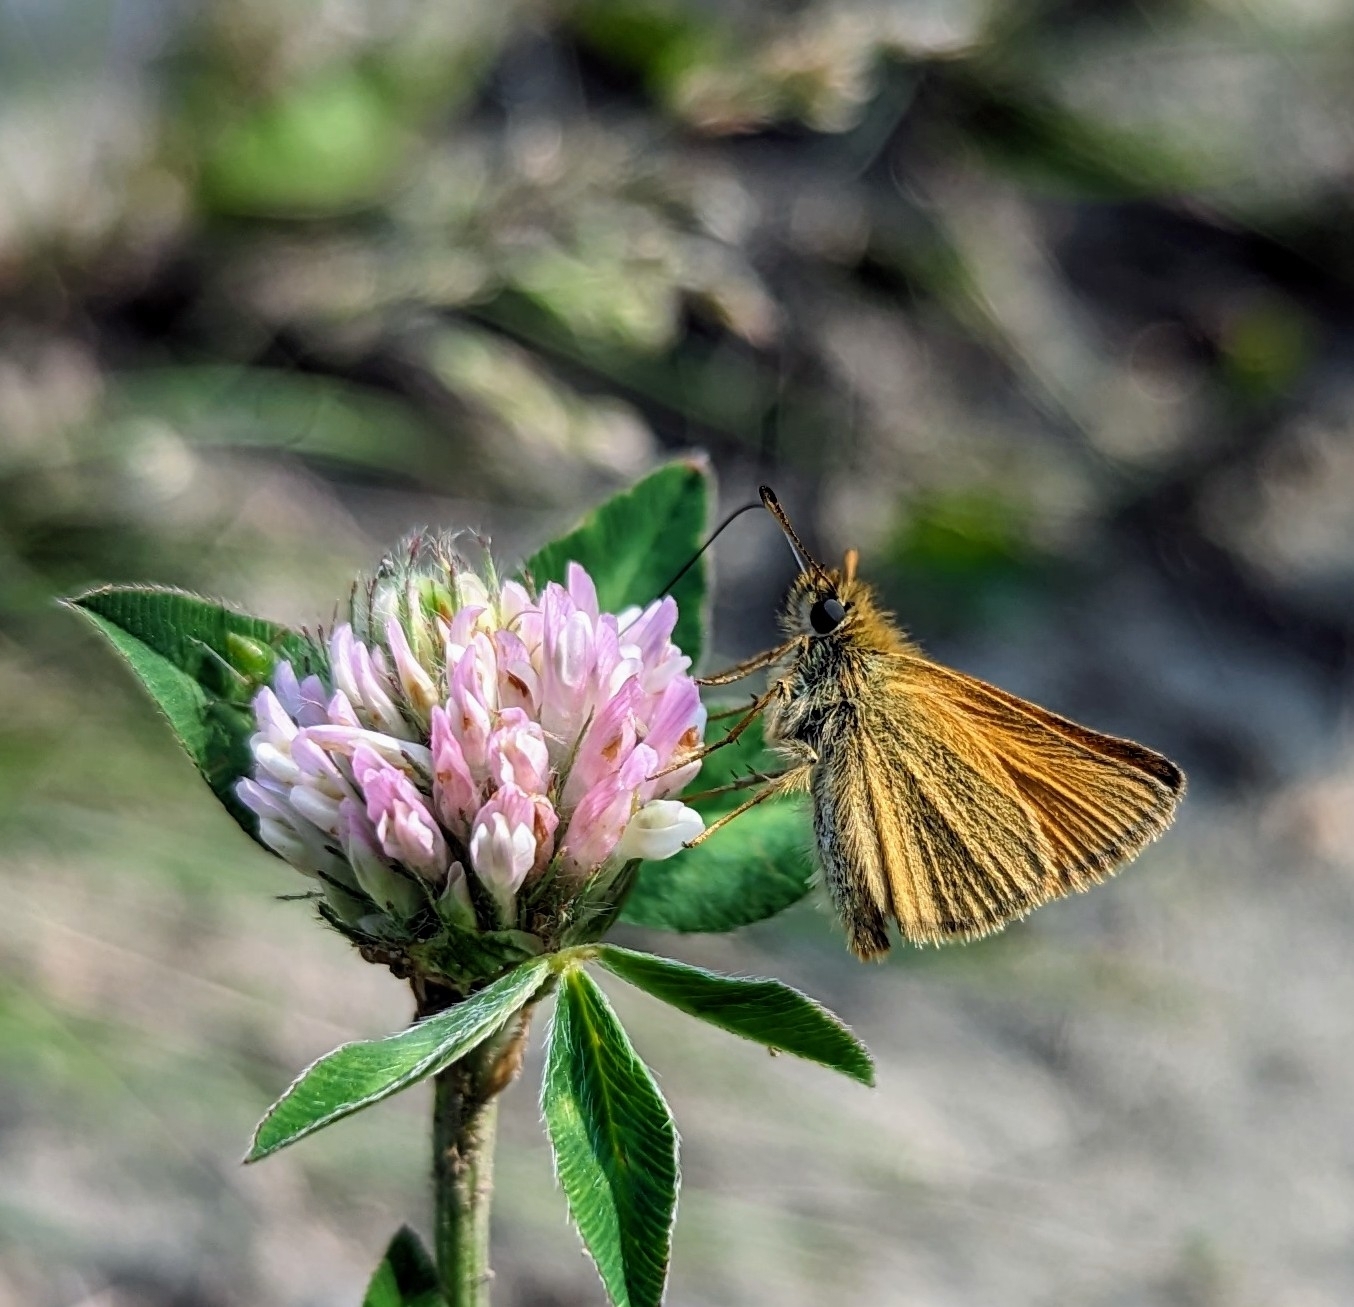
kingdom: Animalia
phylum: Arthropoda
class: Insecta
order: Lepidoptera
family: Hesperiidae
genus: Thymelicus
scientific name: Thymelicus lineola
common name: Essex skipper
